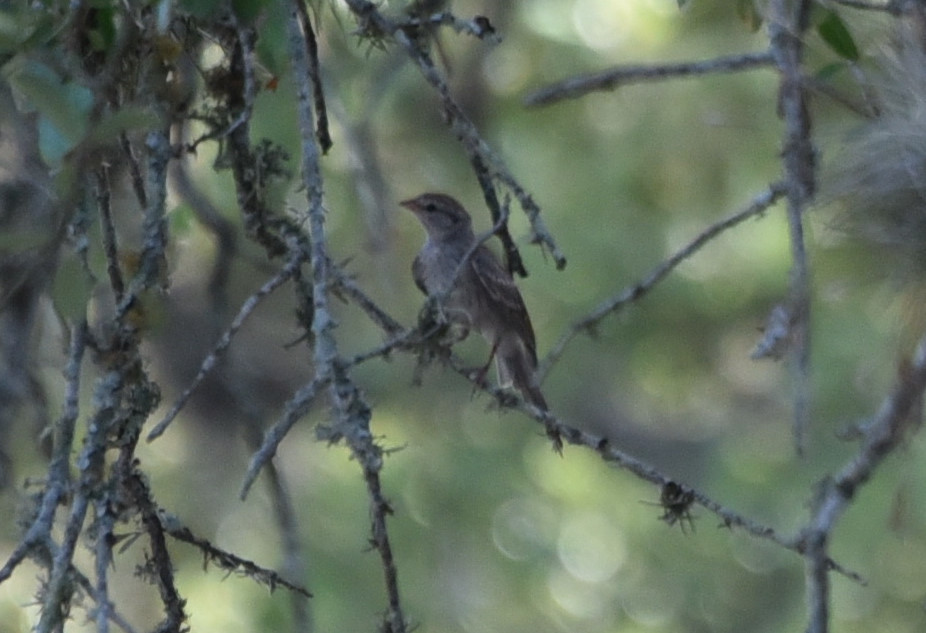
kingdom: Animalia
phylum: Chordata
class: Aves
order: Passeriformes
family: Passerellidae
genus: Spizella
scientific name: Spizella passerina
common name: Chipping sparrow
